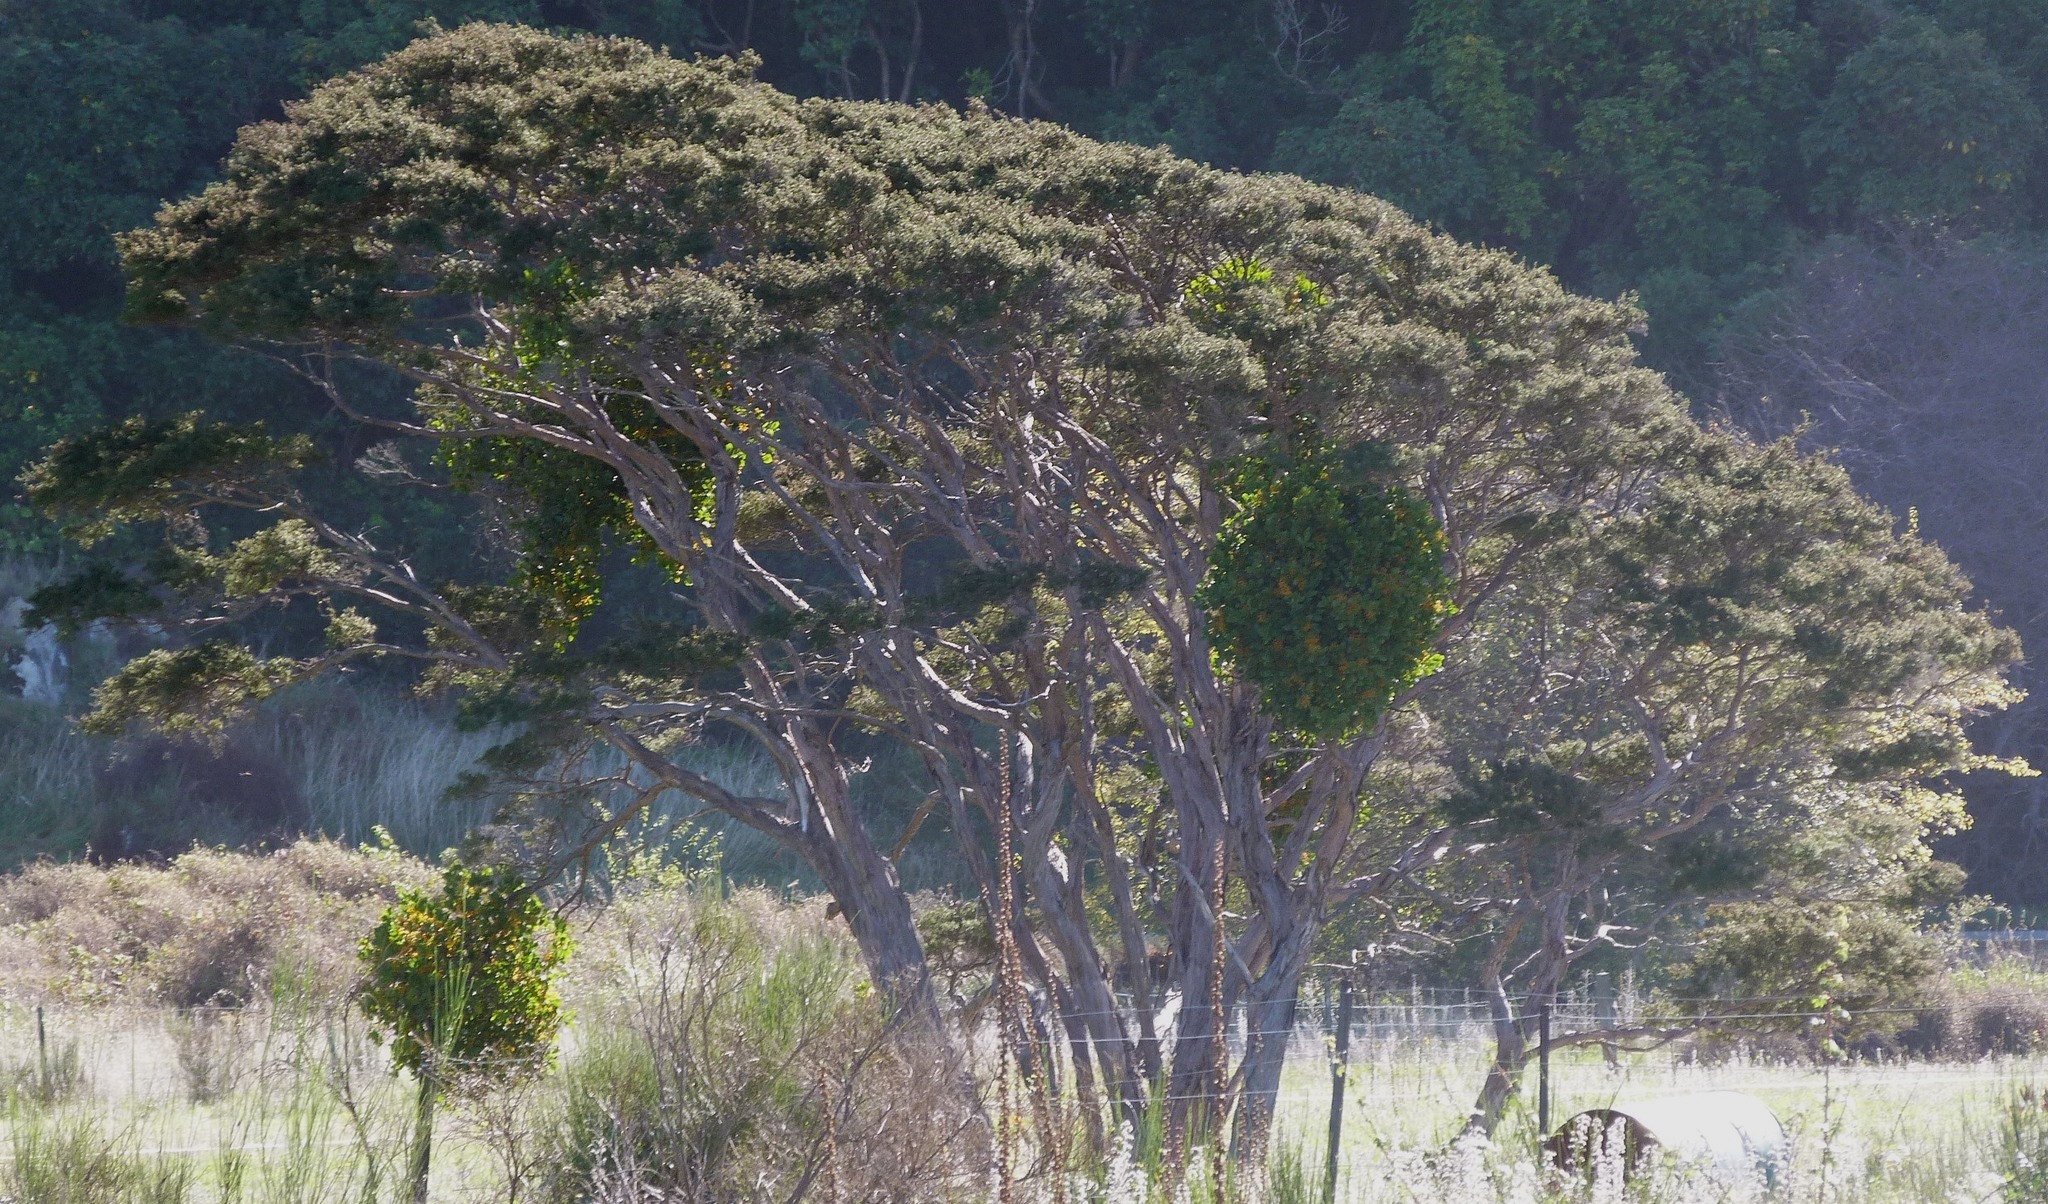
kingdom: Plantae
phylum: Tracheophyta
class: Magnoliopsida
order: Myrtales
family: Myrtaceae
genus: Kunzea
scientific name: Kunzea robusta
